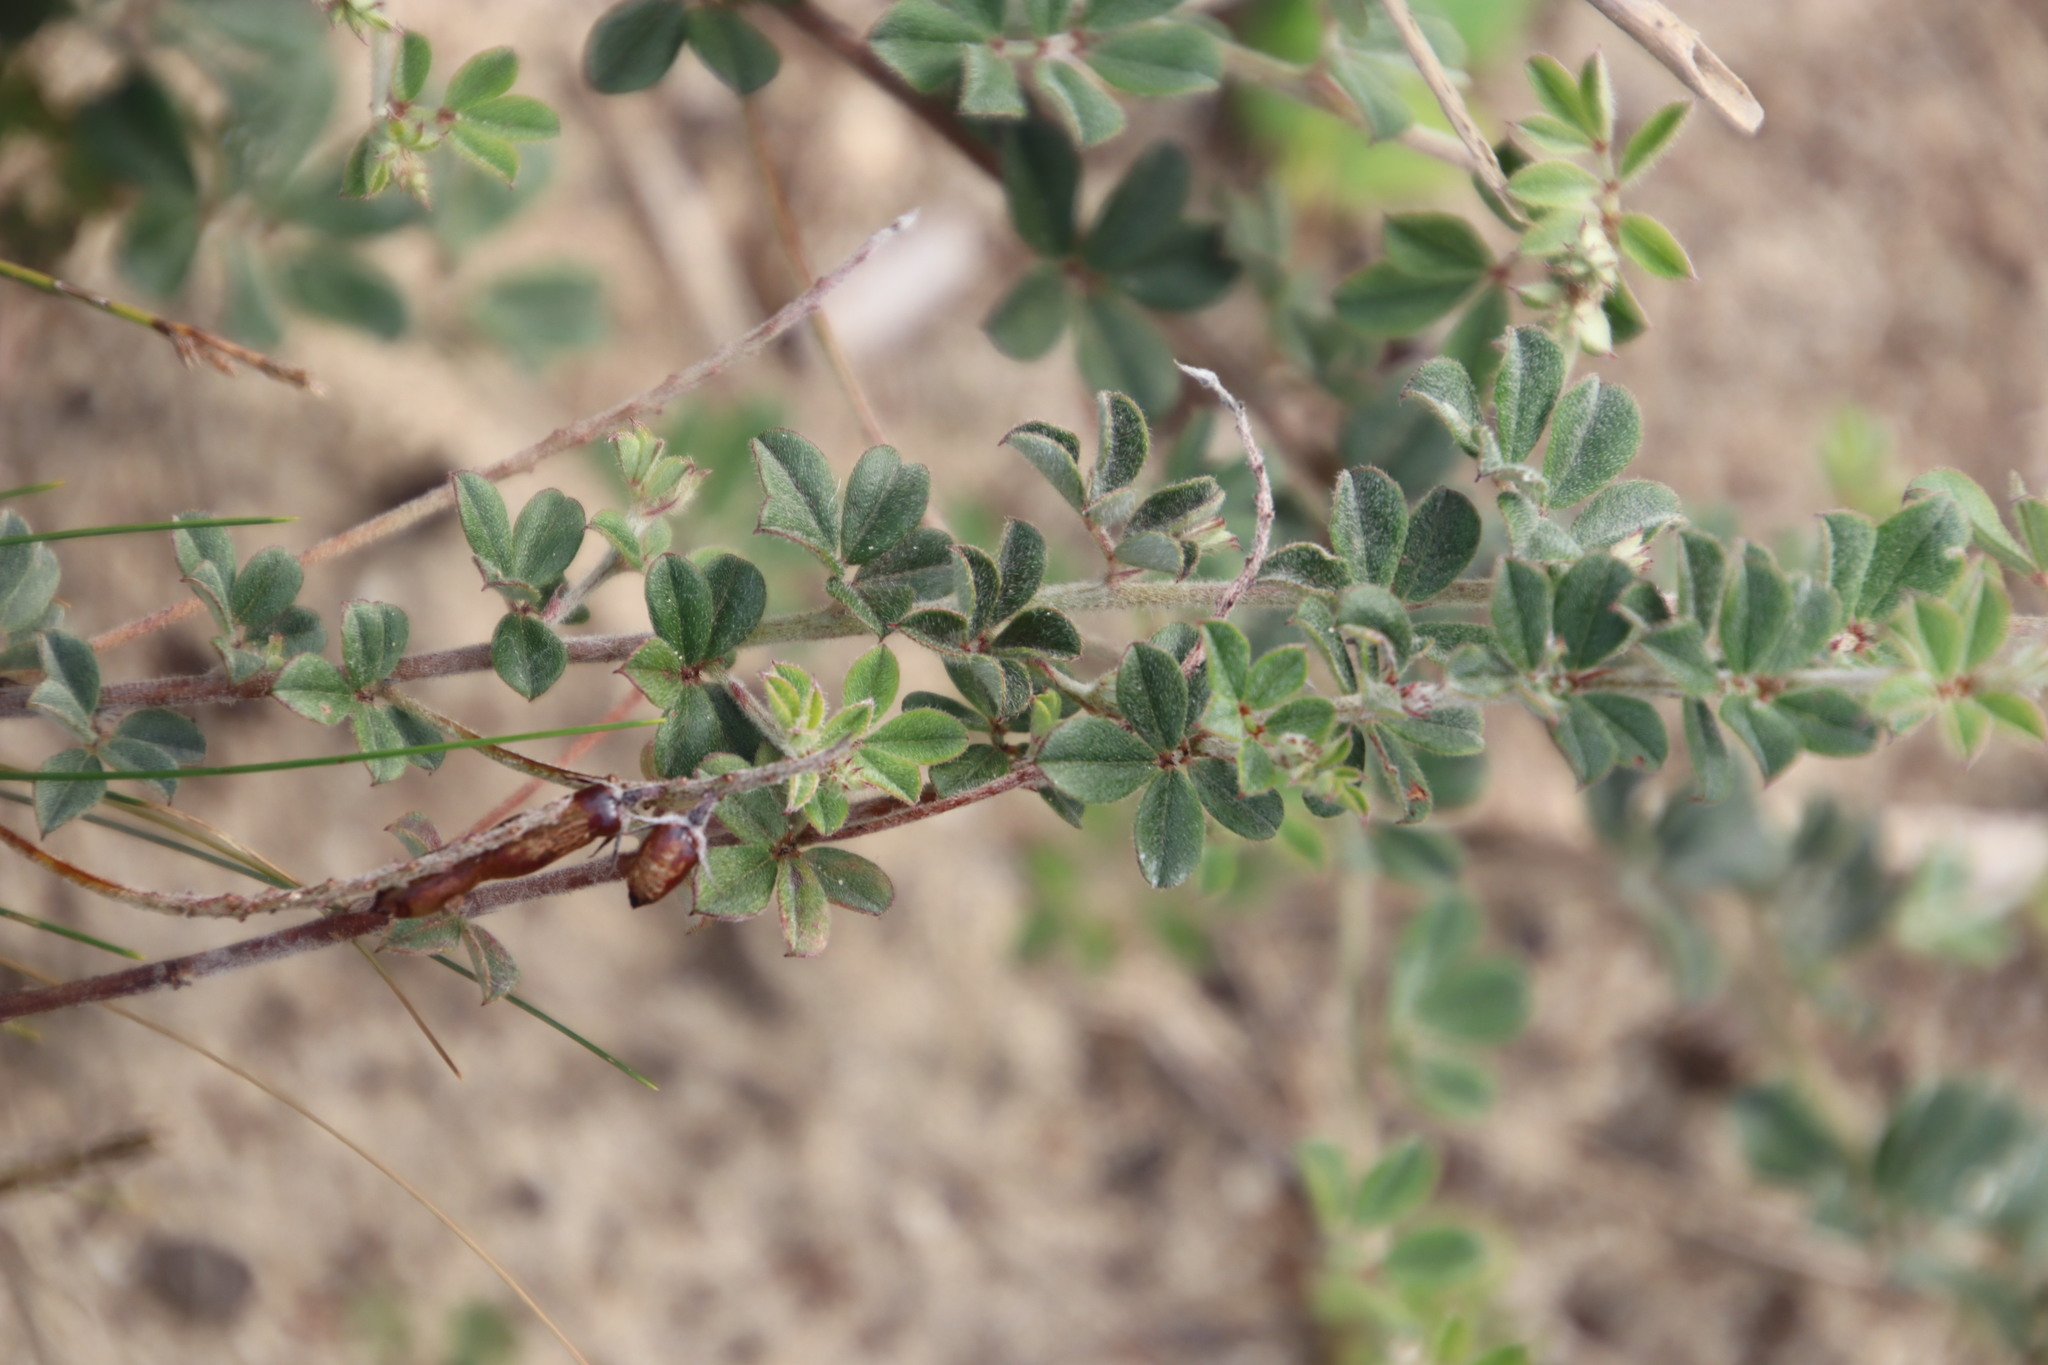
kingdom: Plantae
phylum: Tracheophyta
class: Magnoliopsida
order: Fabales
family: Fabaceae
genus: Indigofera
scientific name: Indigofera mauritanica
